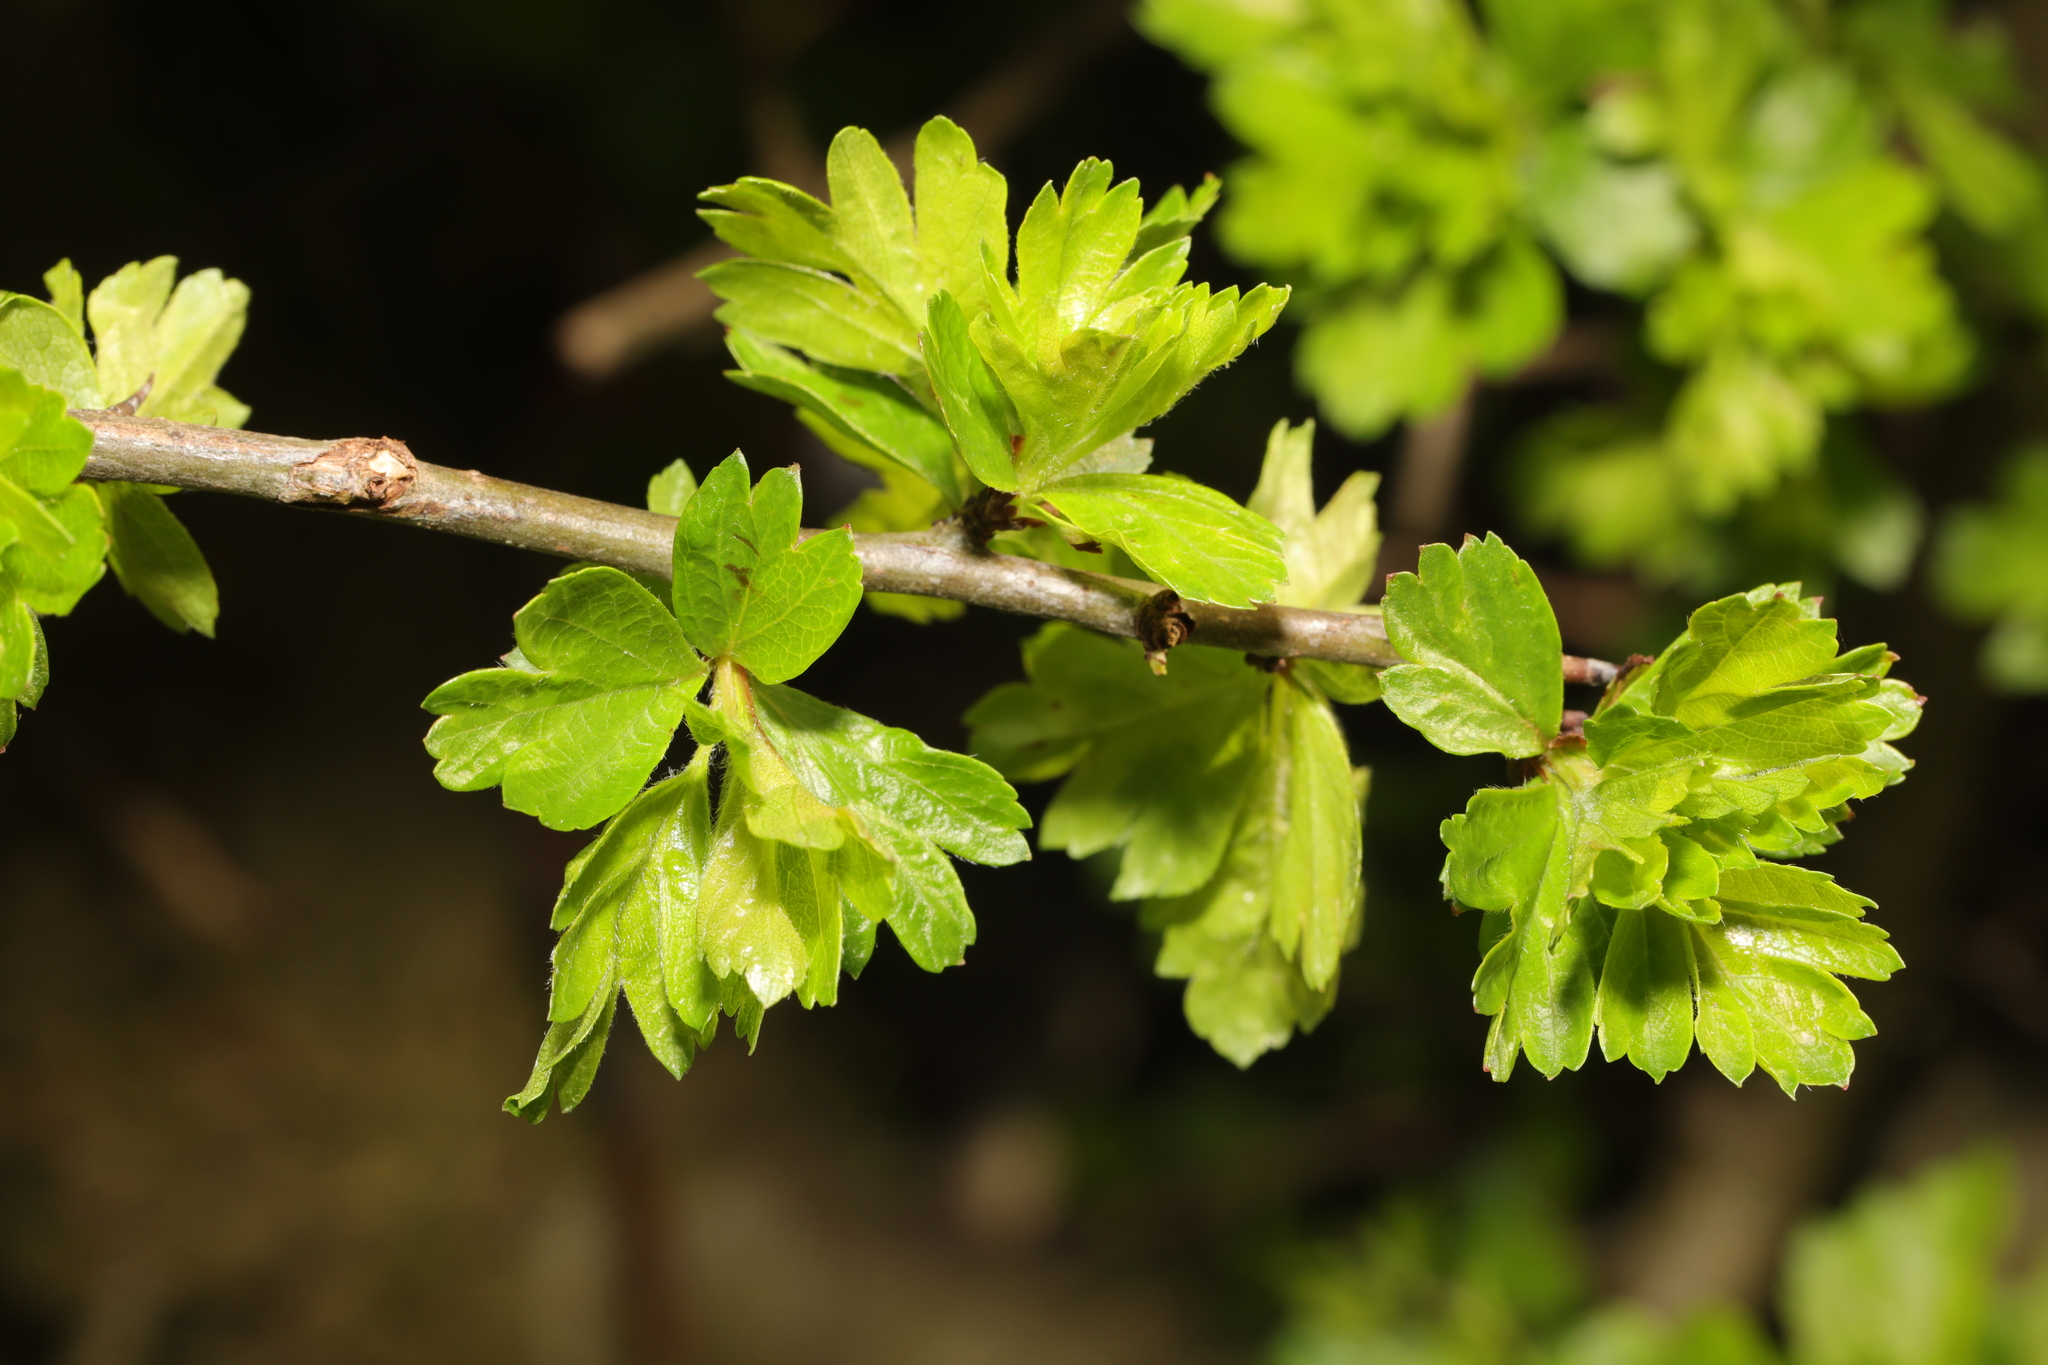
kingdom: Plantae
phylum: Tracheophyta
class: Magnoliopsida
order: Rosales
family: Rosaceae
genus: Crataegus
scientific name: Crataegus monogyna
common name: Hawthorn
